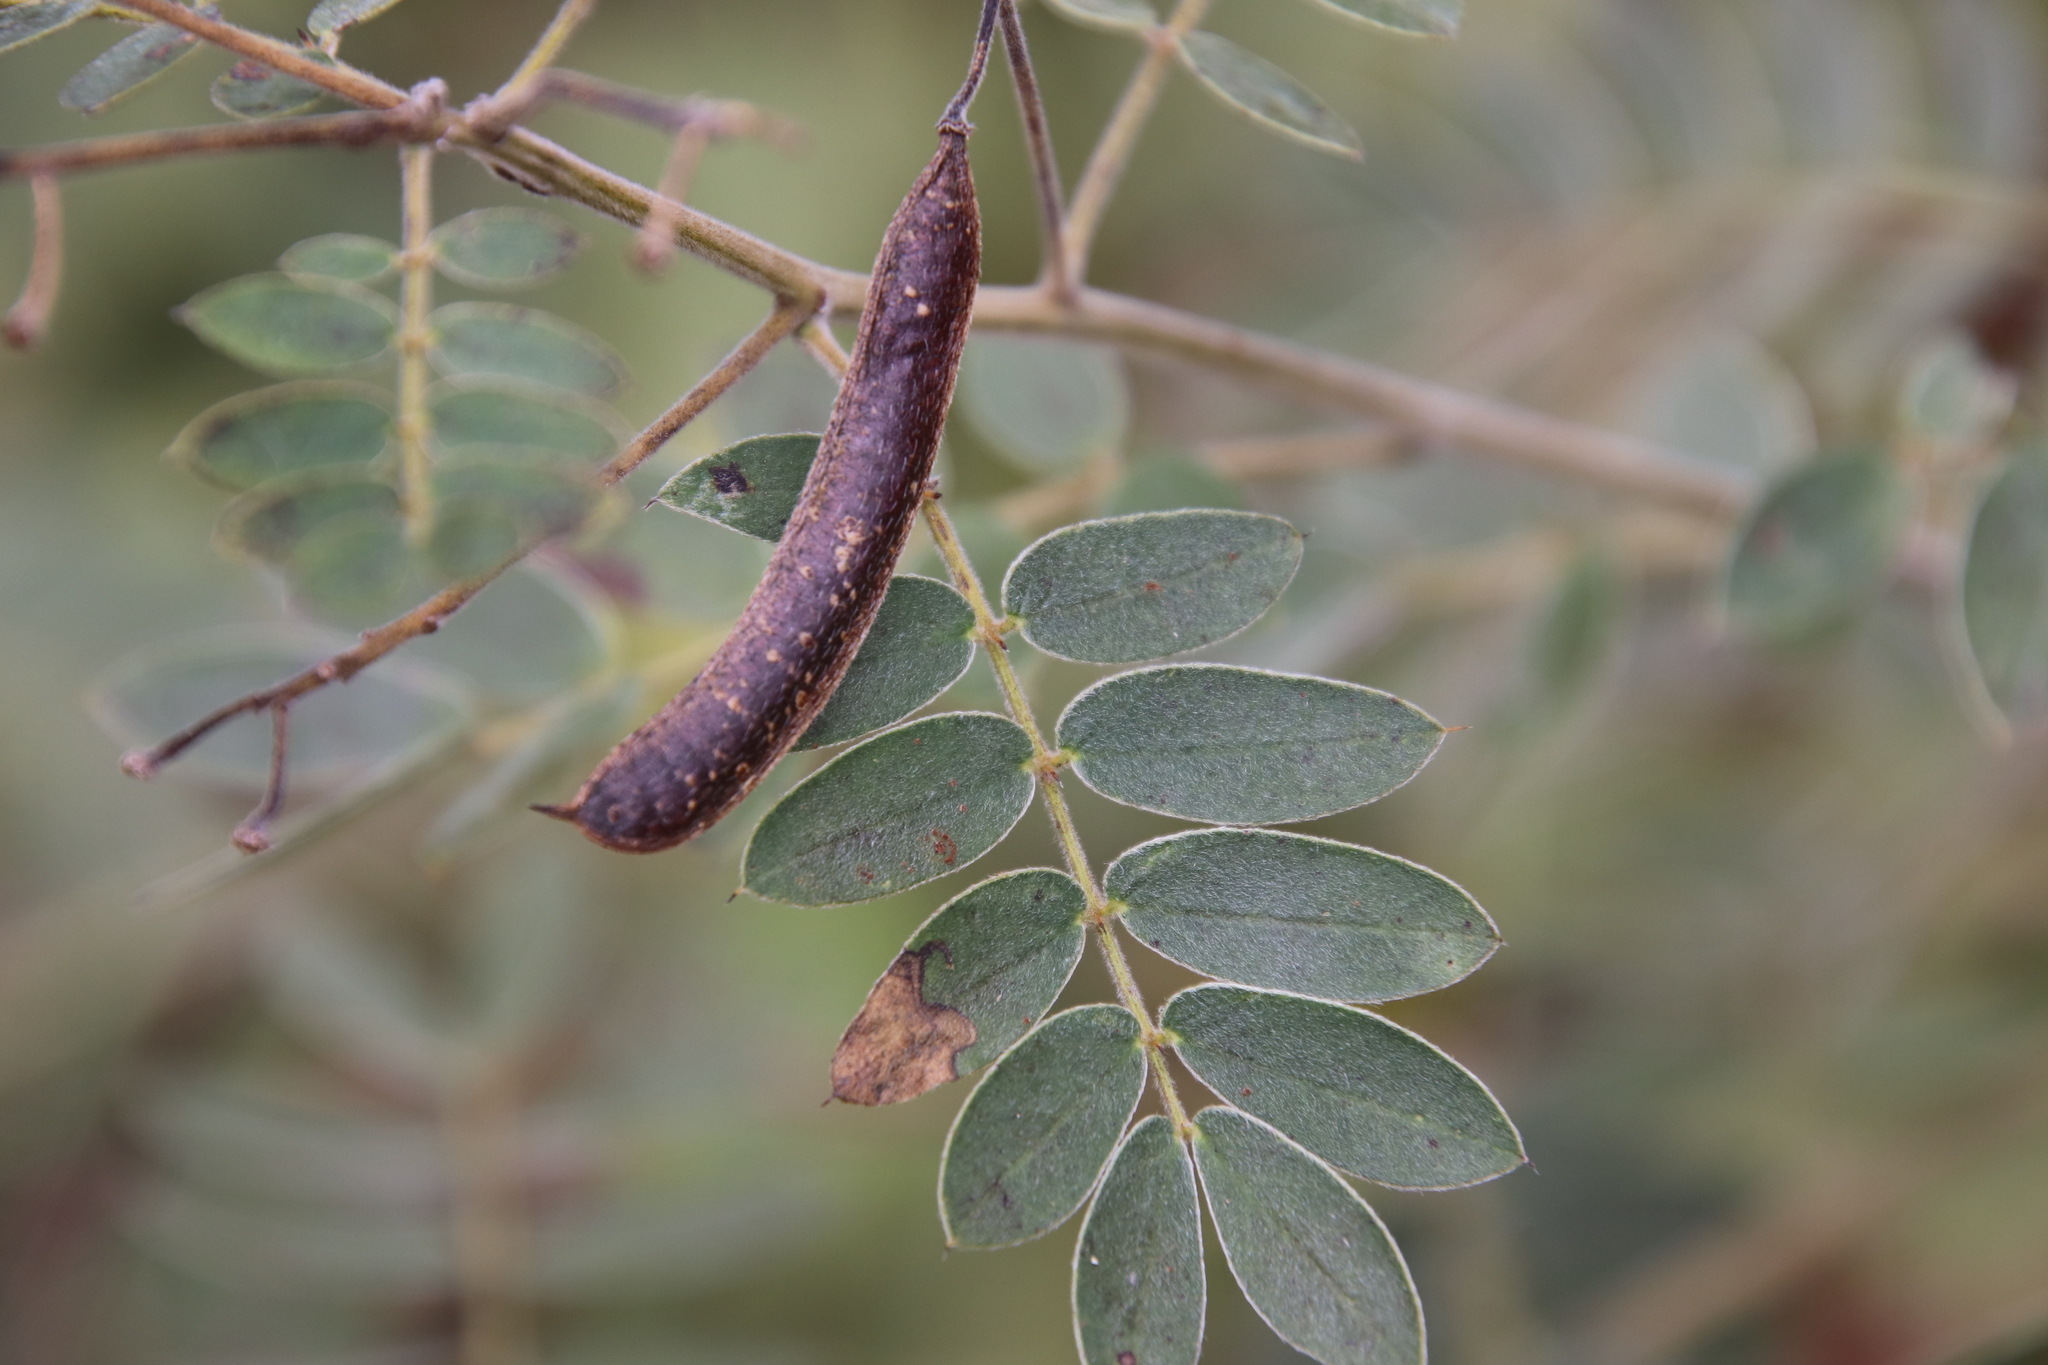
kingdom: Plantae
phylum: Tracheophyta
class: Magnoliopsida
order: Fabales
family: Fabaceae
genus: Senna
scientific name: Senna lindheimeriana
